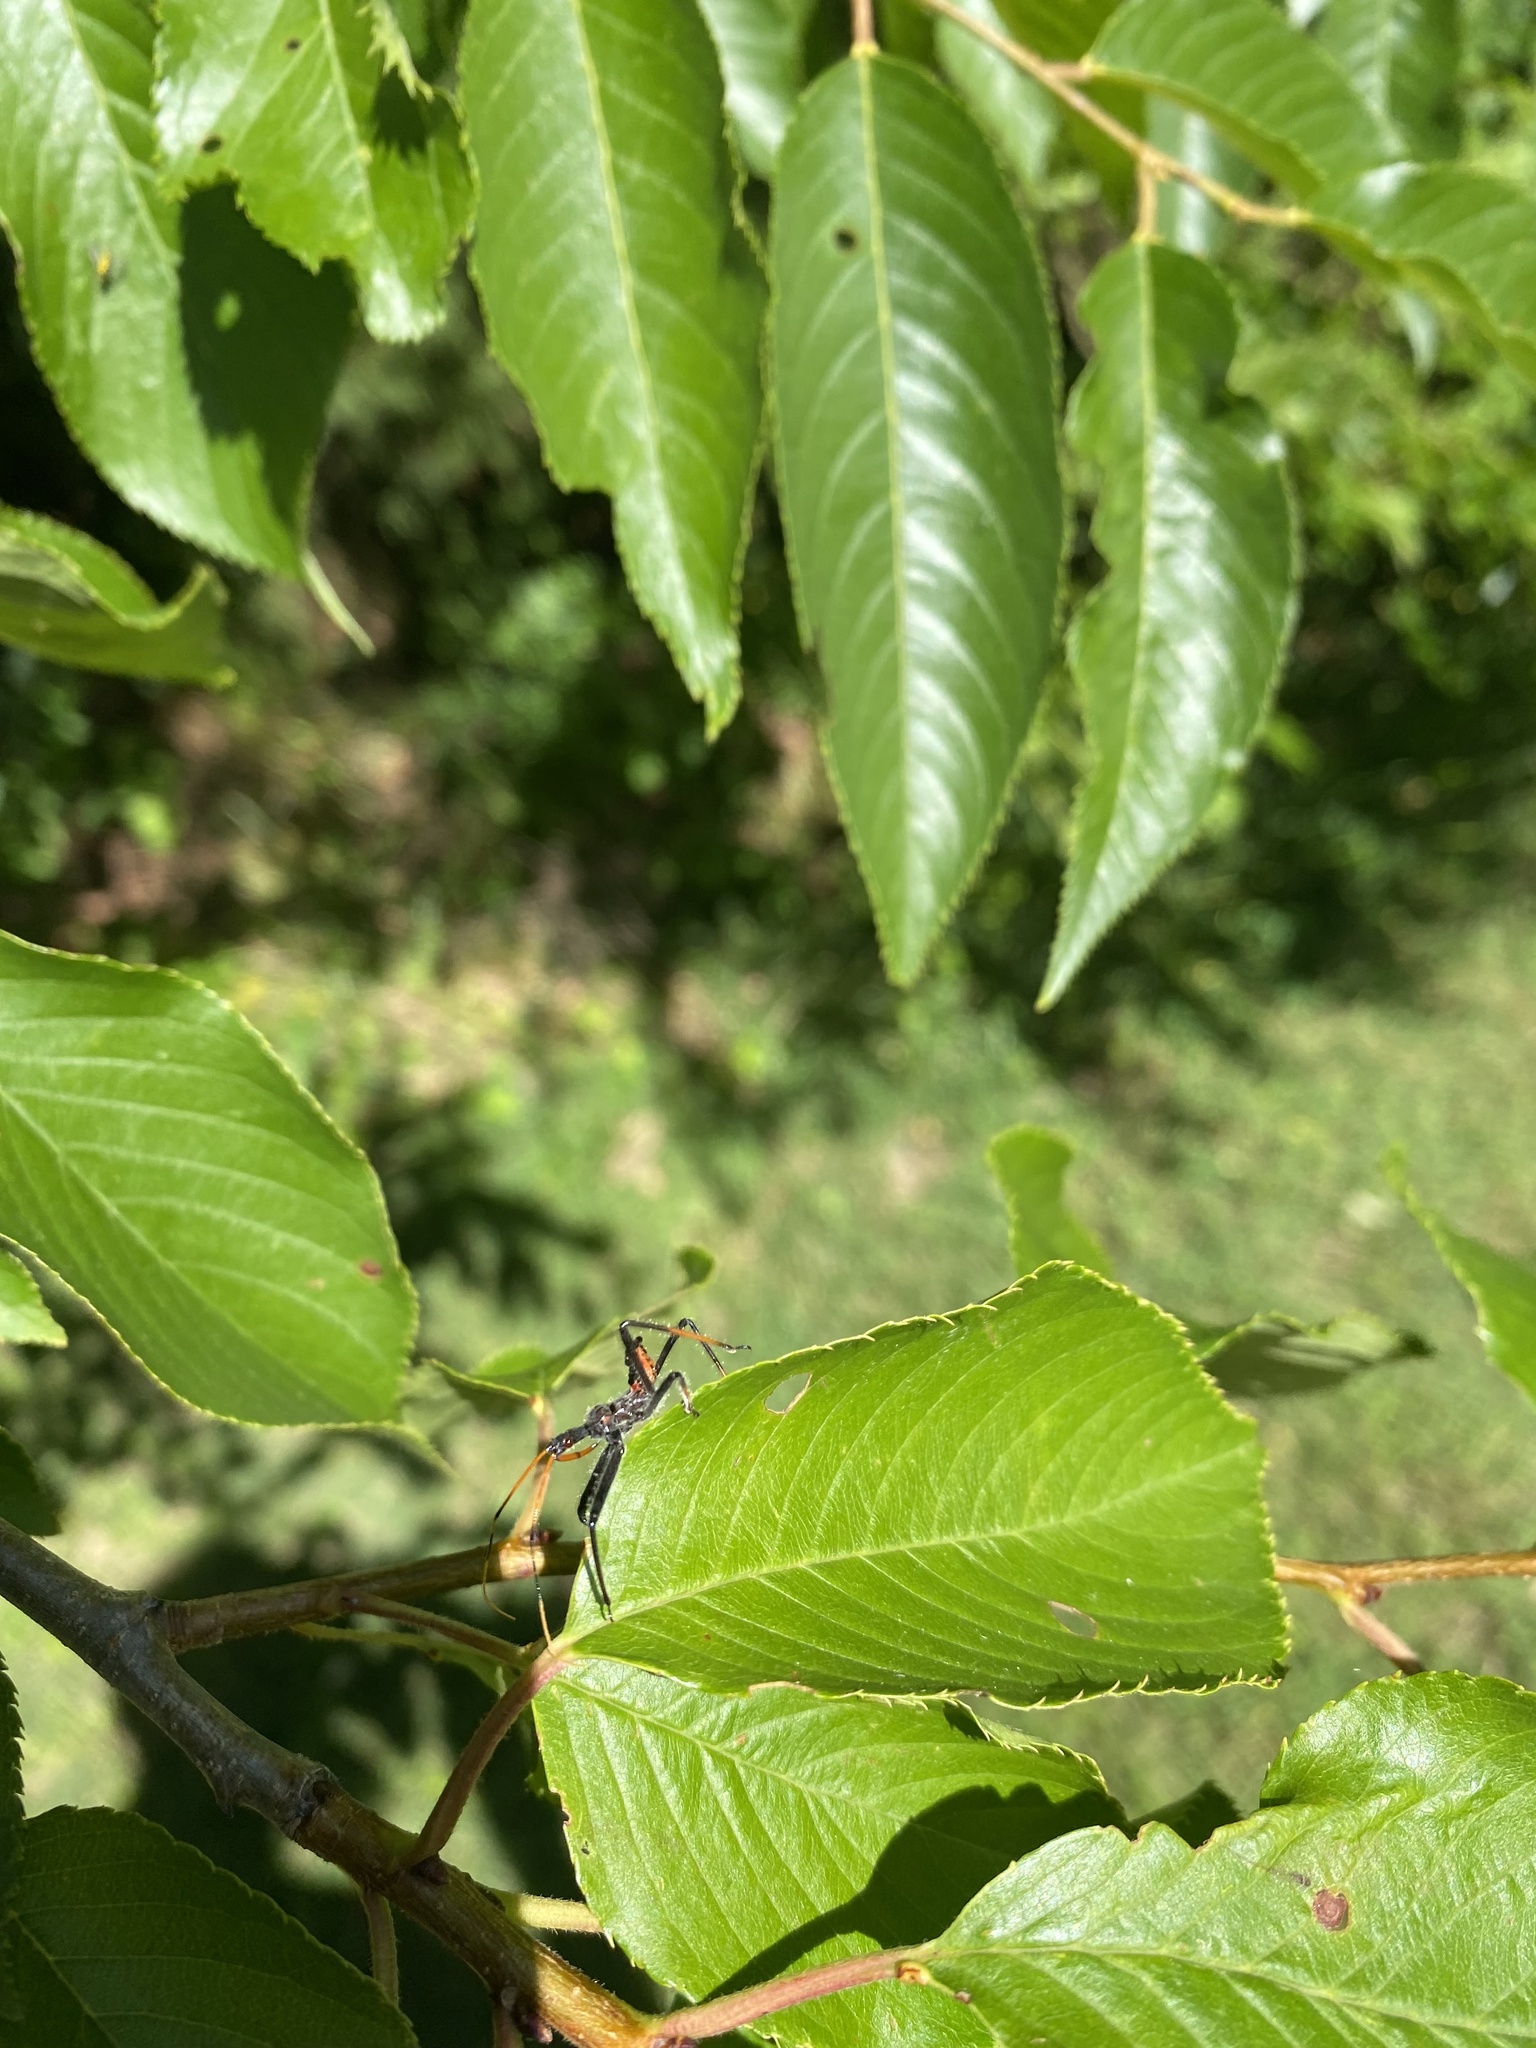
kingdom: Animalia
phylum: Arthropoda
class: Insecta
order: Hemiptera
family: Reduviidae
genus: Arilus
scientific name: Arilus cristatus
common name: North american wheel bug
